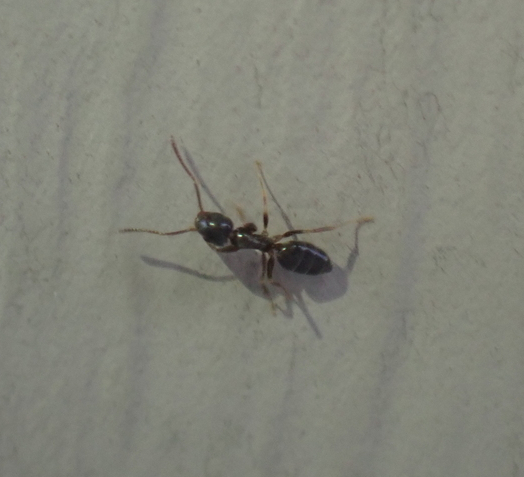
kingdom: Animalia
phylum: Arthropoda
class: Insecta
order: Hymenoptera
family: Formicidae
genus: Tapinoma
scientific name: Tapinoma sessile
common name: Odorous house ant
